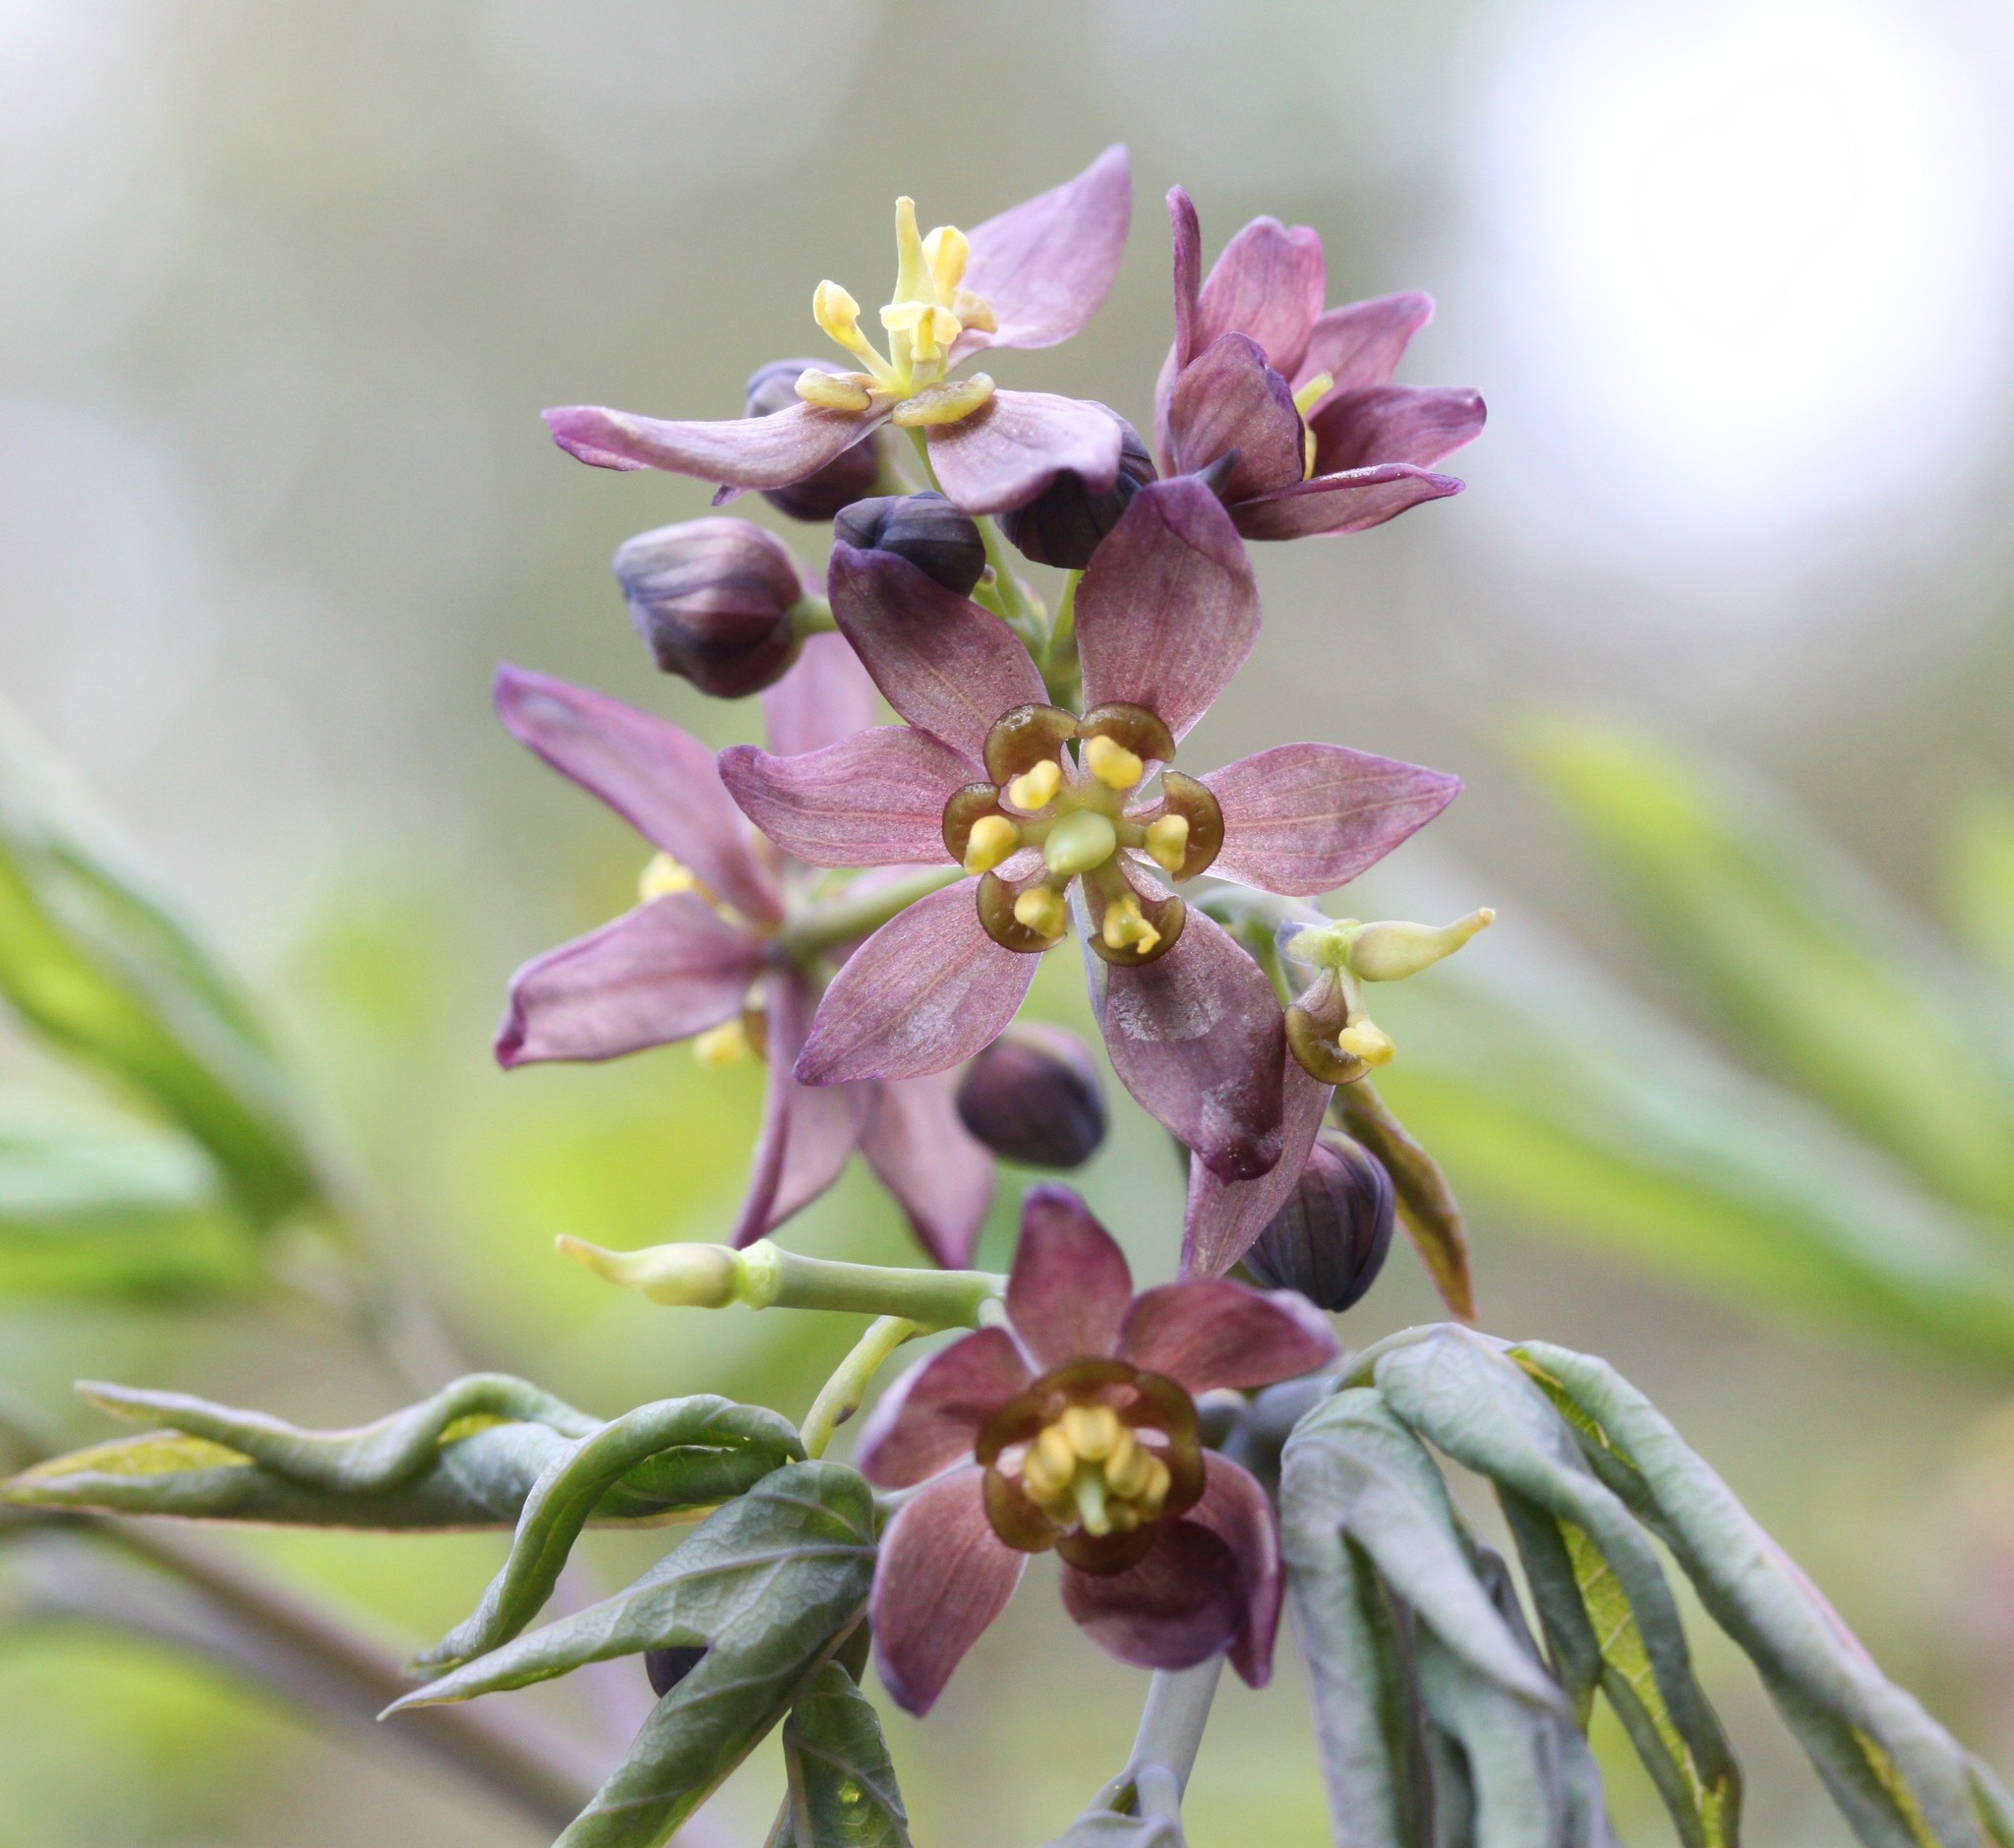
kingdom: Plantae
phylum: Tracheophyta
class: Magnoliopsida
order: Ranunculales
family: Berberidaceae
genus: Caulophyllum
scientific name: Caulophyllum giganteum
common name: Blue cohosh
